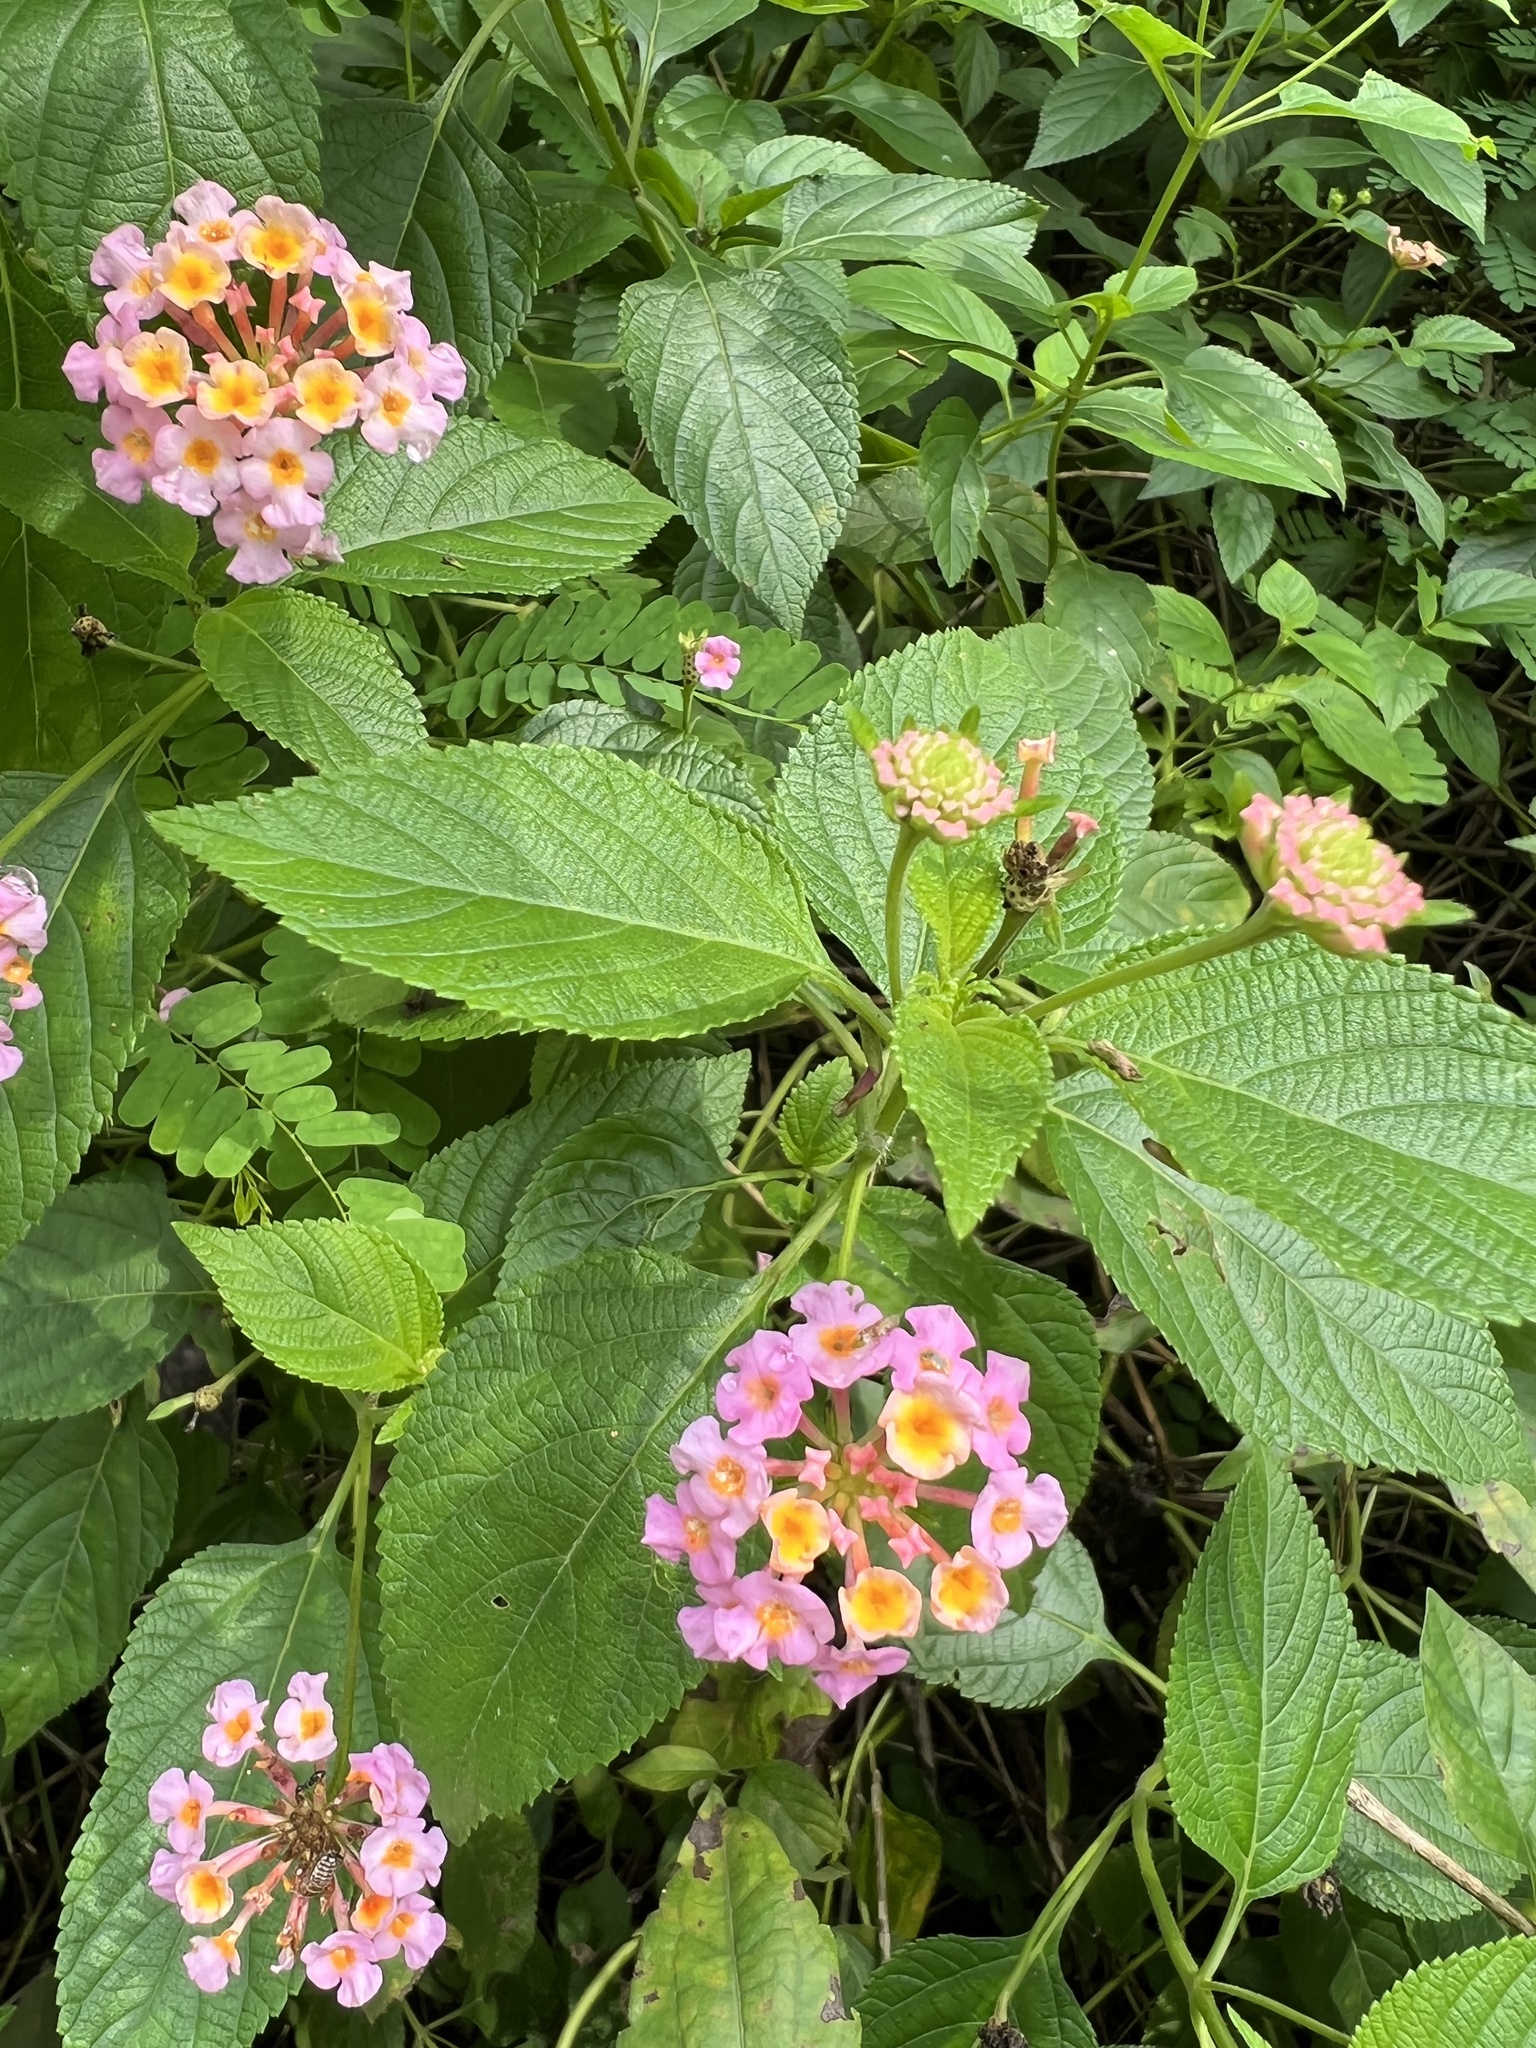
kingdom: Plantae
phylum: Tracheophyta
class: Magnoliopsida
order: Lamiales
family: Verbenaceae
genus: Lantana
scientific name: Lantana camara
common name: Lantana
